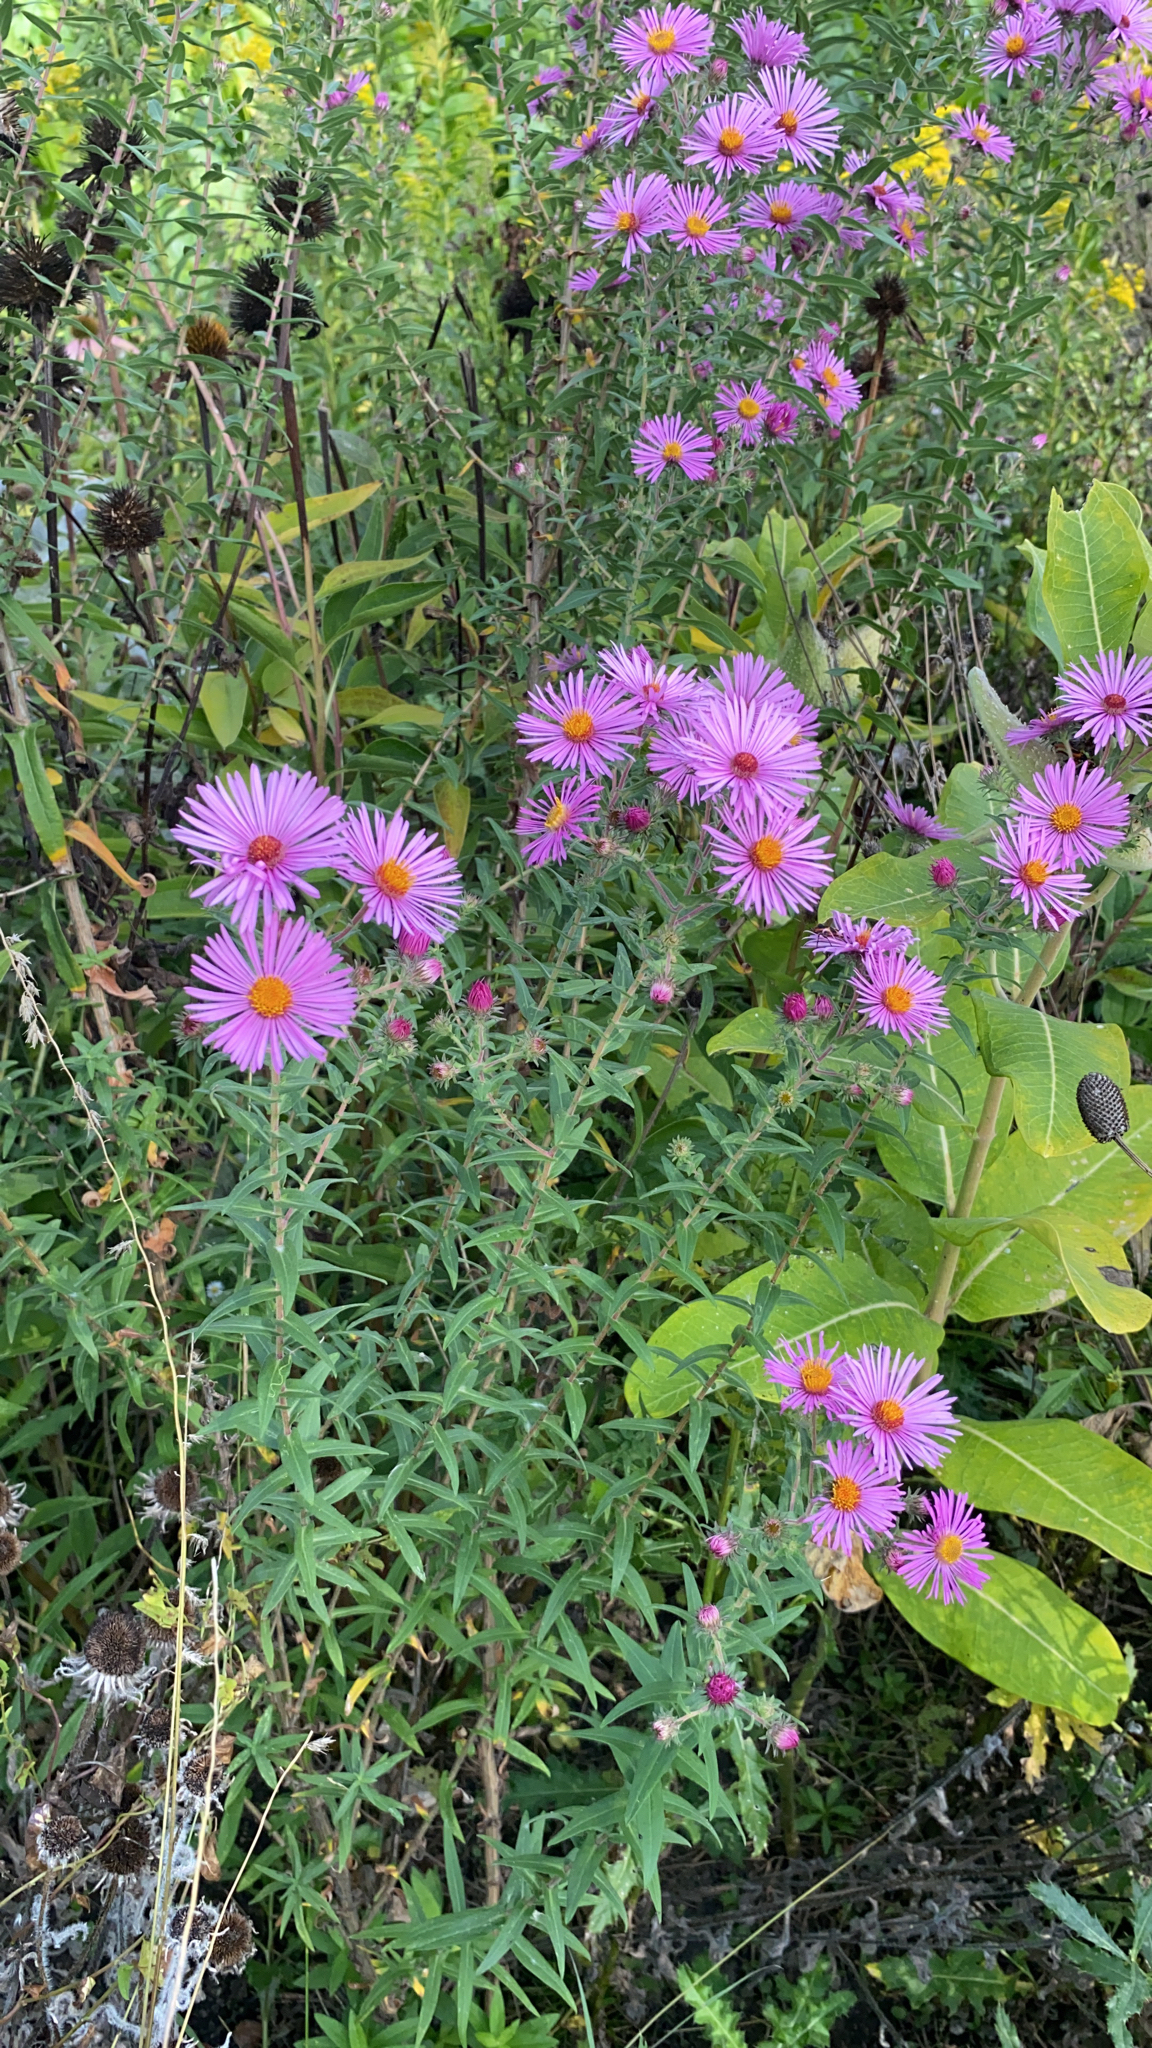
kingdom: Plantae
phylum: Tracheophyta
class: Magnoliopsida
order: Asterales
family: Asteraceae
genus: Symphyotrichum
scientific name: Symphyotrichum novae-angliae
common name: Michaelmas daisy
